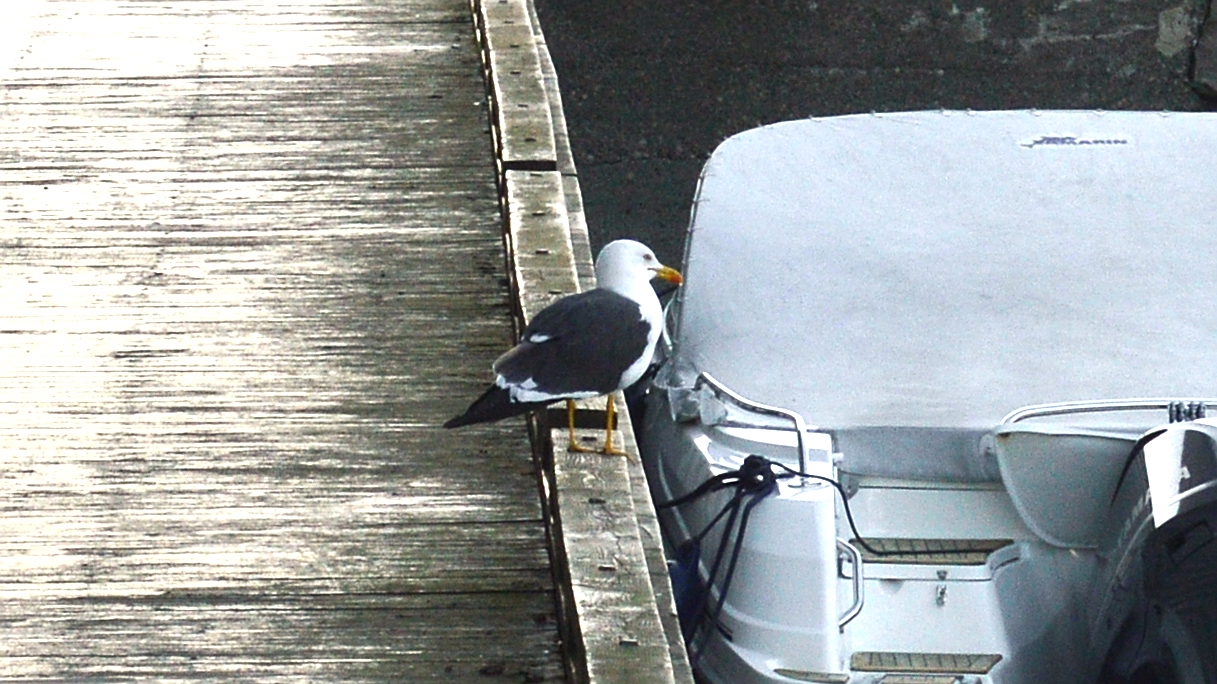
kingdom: Animalia
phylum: Chordata
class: Aves
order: Charadriiformes
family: Laridae
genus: Larus
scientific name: Larus fuscus
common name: Lesser black-backed gull
